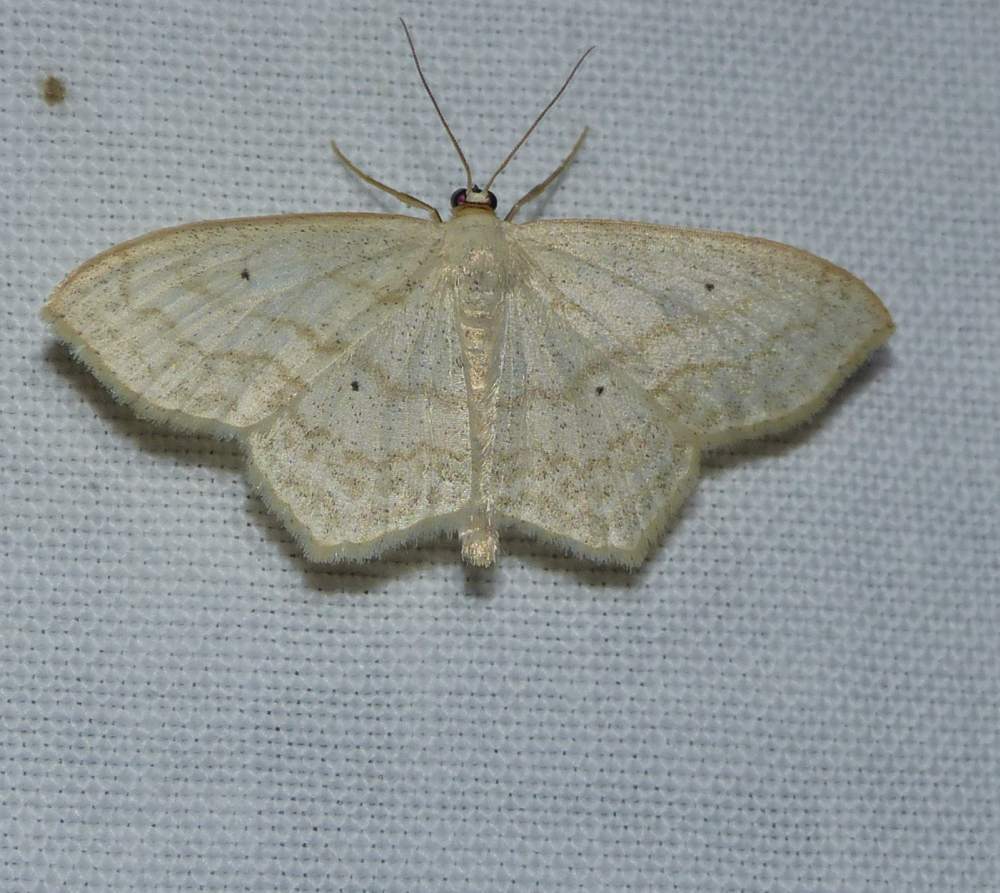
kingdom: Animalia
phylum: Arthropoda
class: Insecta
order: Lepidoptera
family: Geometridae
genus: Scopula
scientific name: Scopula limboundata
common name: Large lace border
